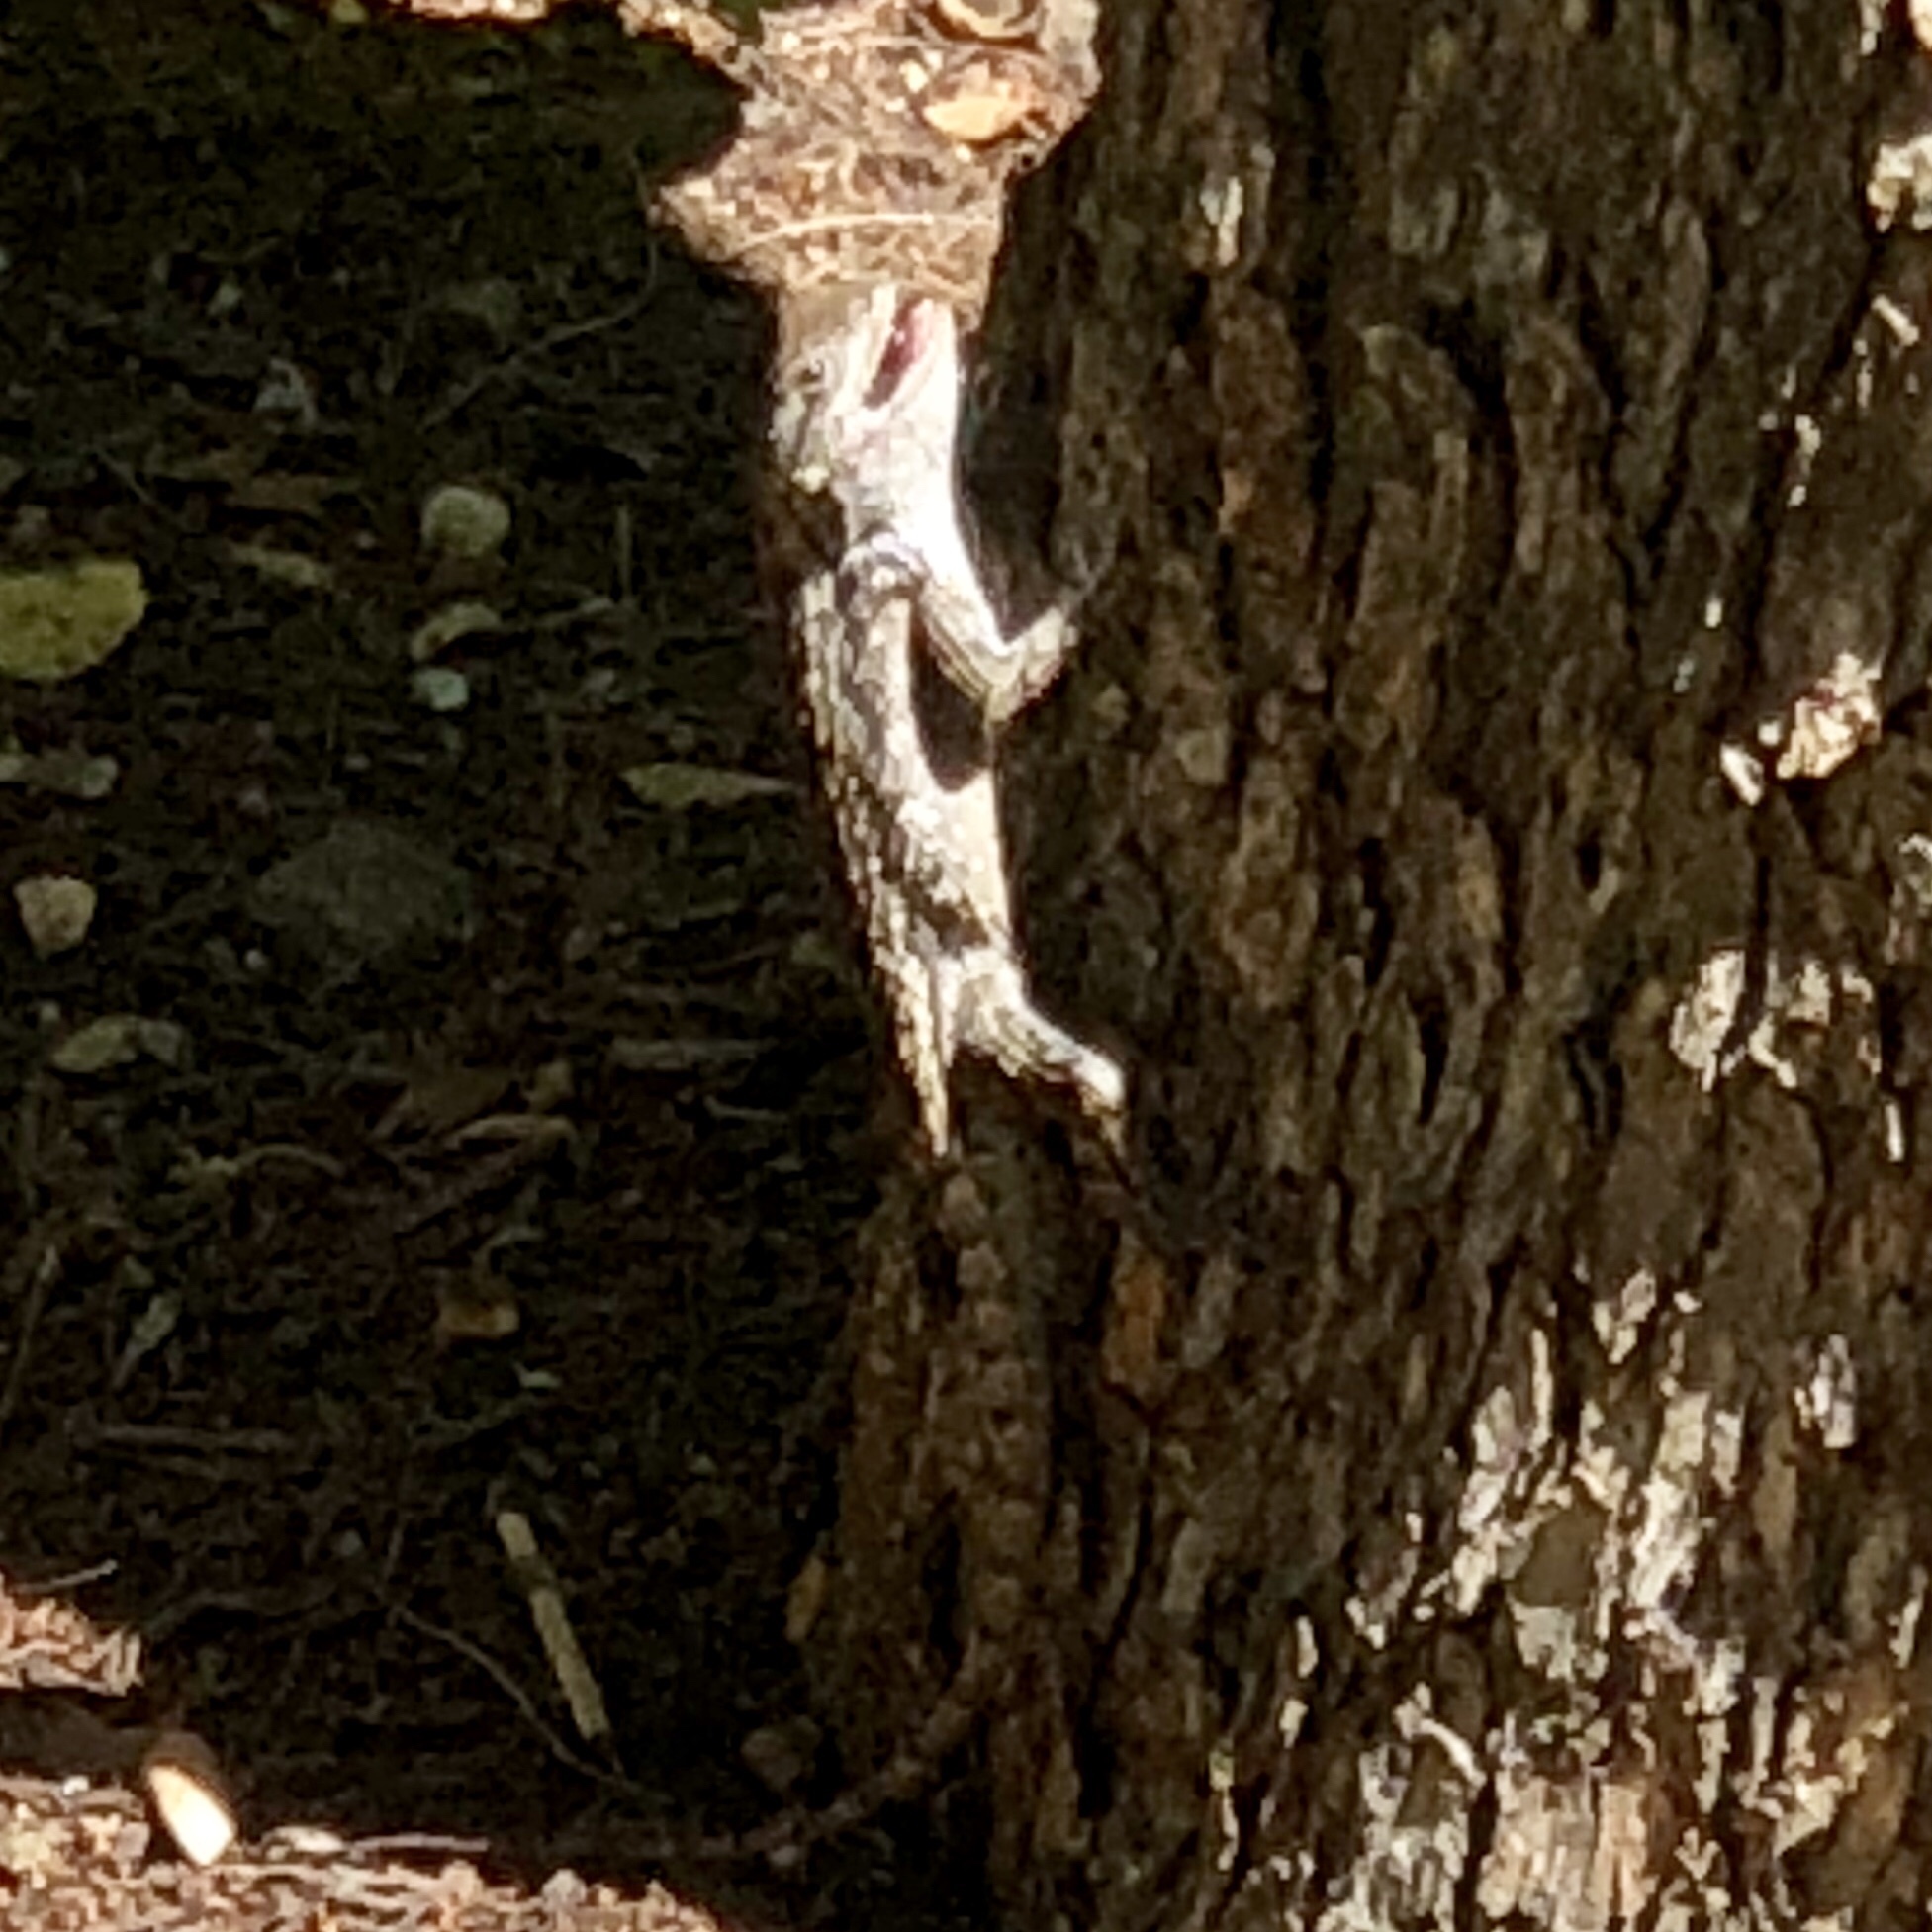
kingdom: Animalia
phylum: Chordata
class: Squamata
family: Phrynosomatidae
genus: Sceloporus
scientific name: Sceloporus olivaceus
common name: Texas spiny lizard
